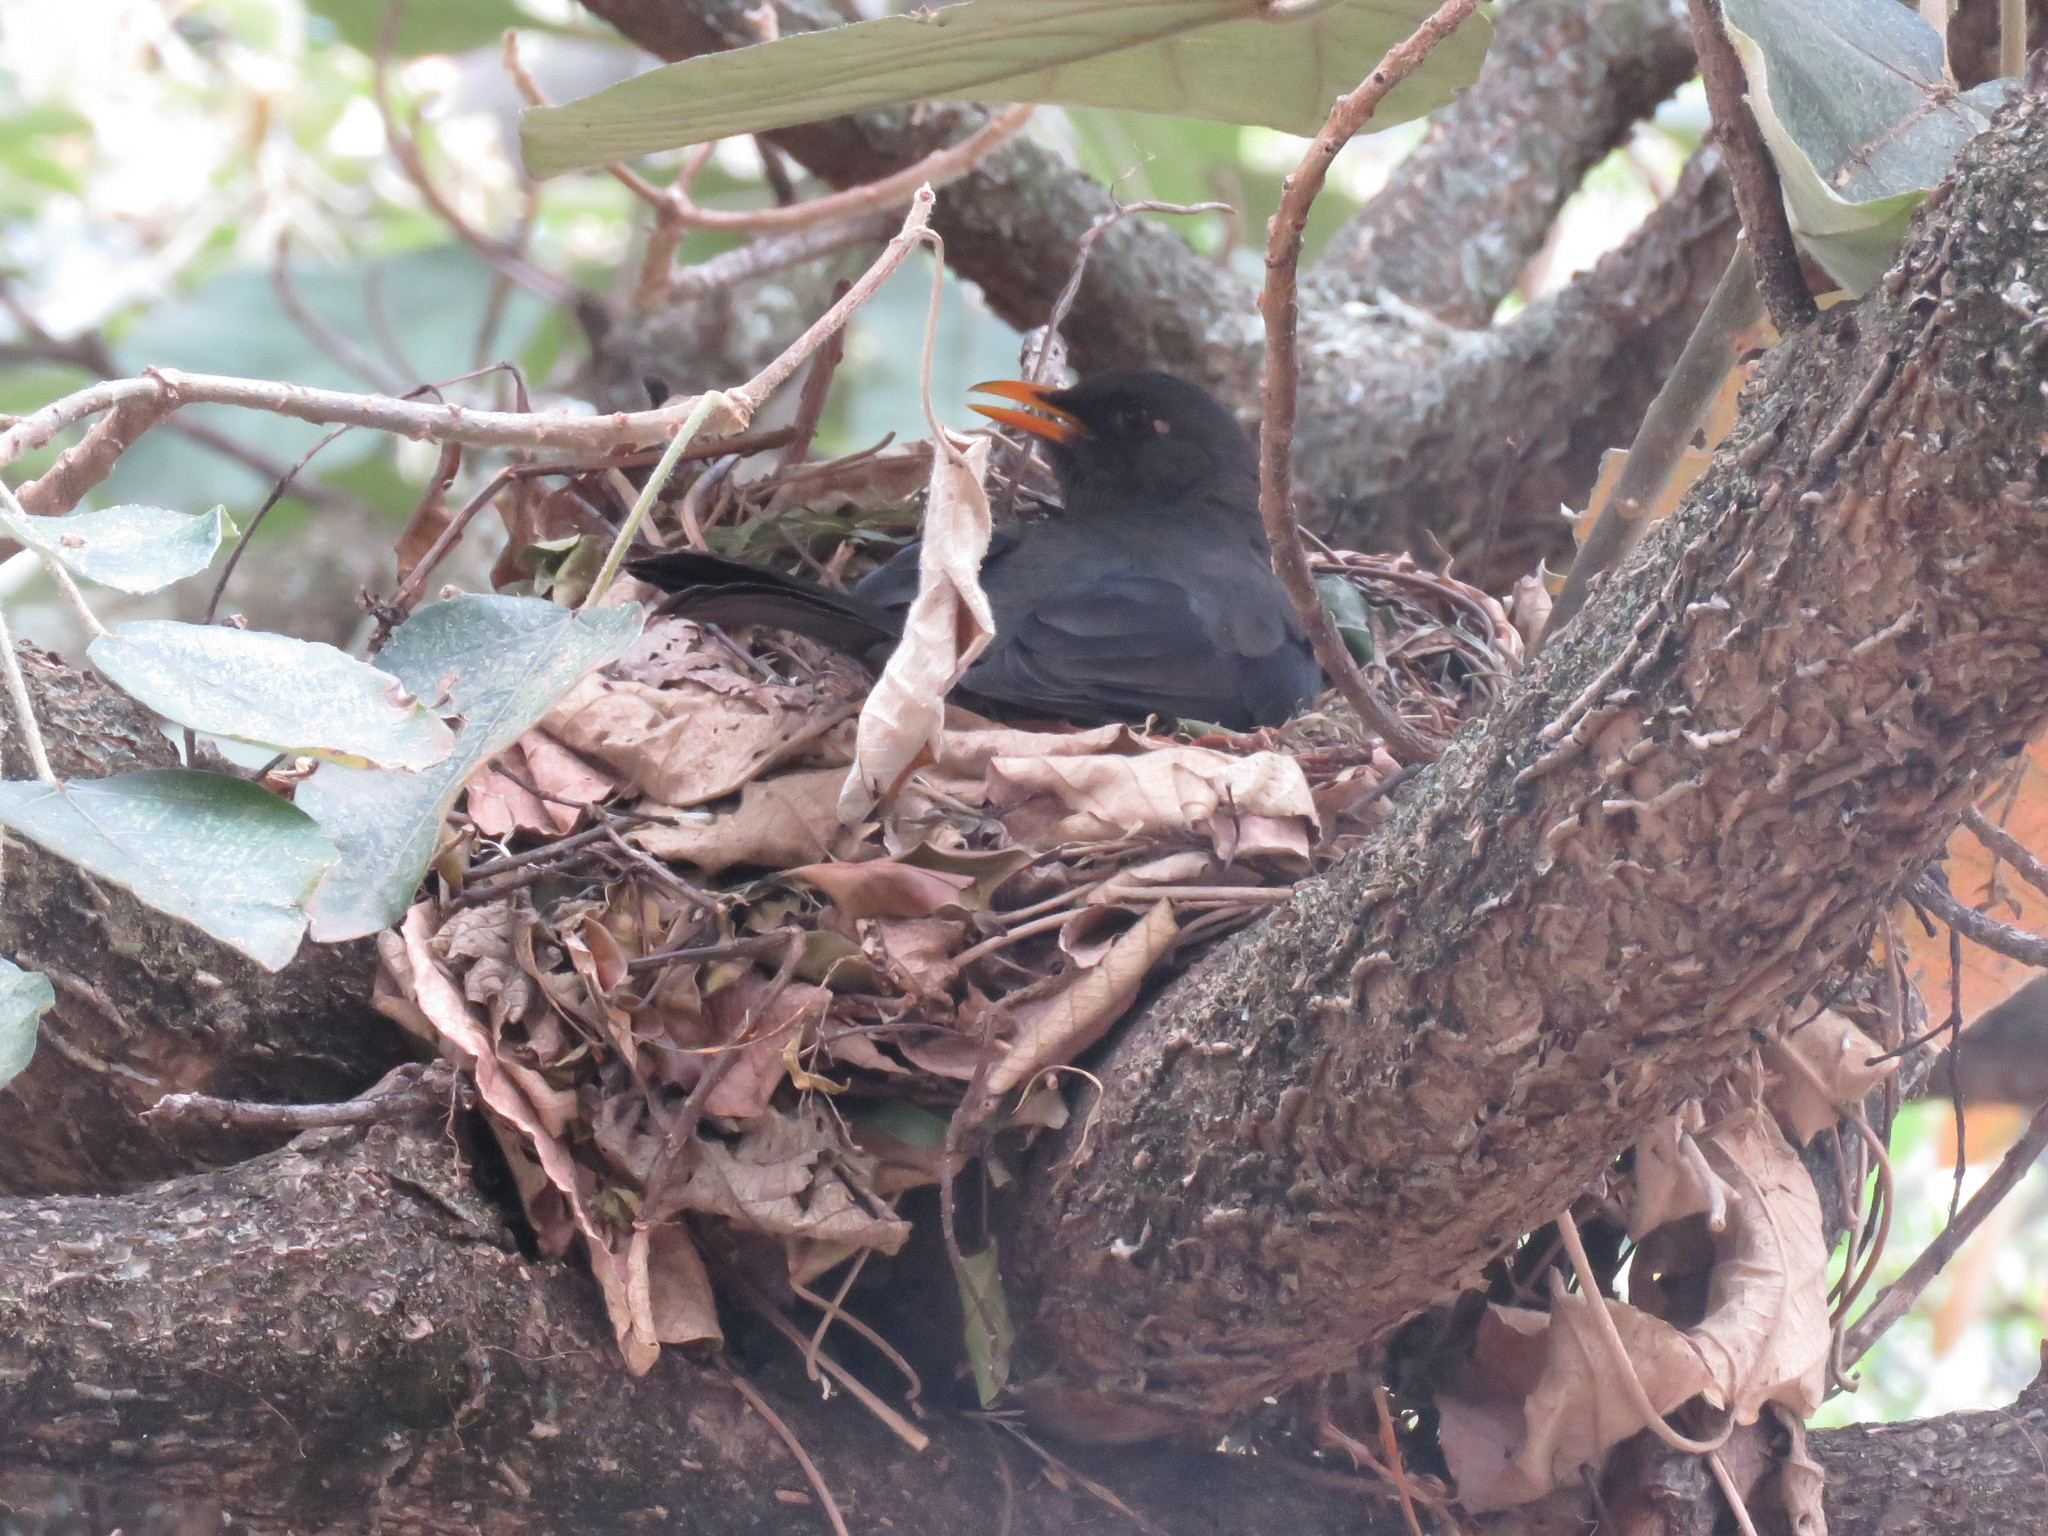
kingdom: Animalia
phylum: Chordata
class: Aves
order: Passeriformes
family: Turdidae
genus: Turdus
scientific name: Turdus fuscater
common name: Great thrush
